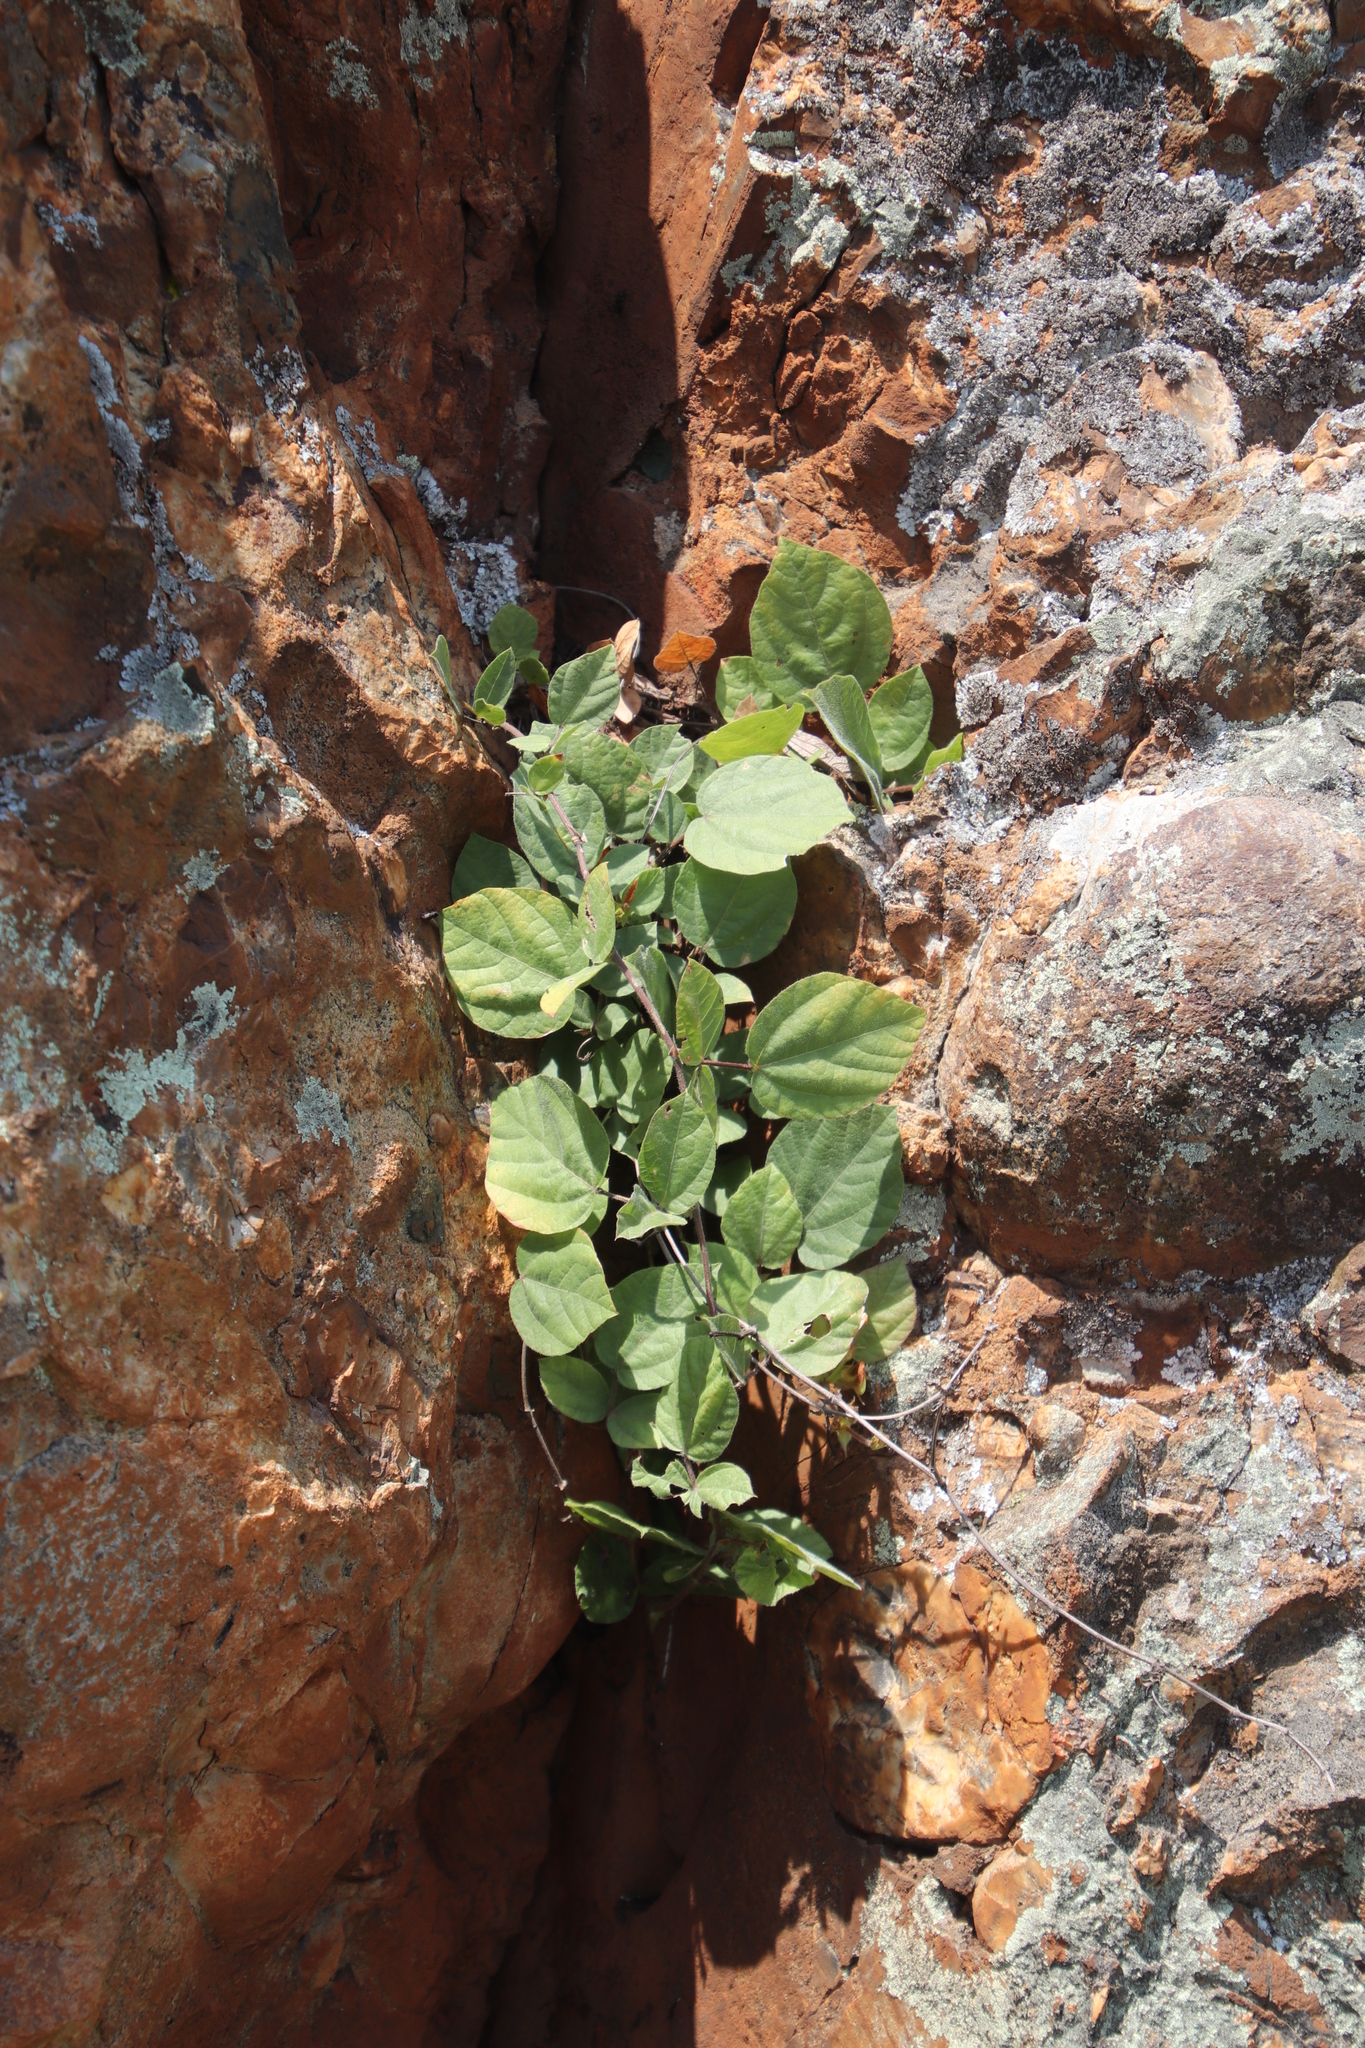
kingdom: Plantae
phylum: Tracheophyta
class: Magnoliopsida
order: Fabales
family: Fabaceae
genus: Rhynchosia
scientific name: Rhynchosia monophylla
